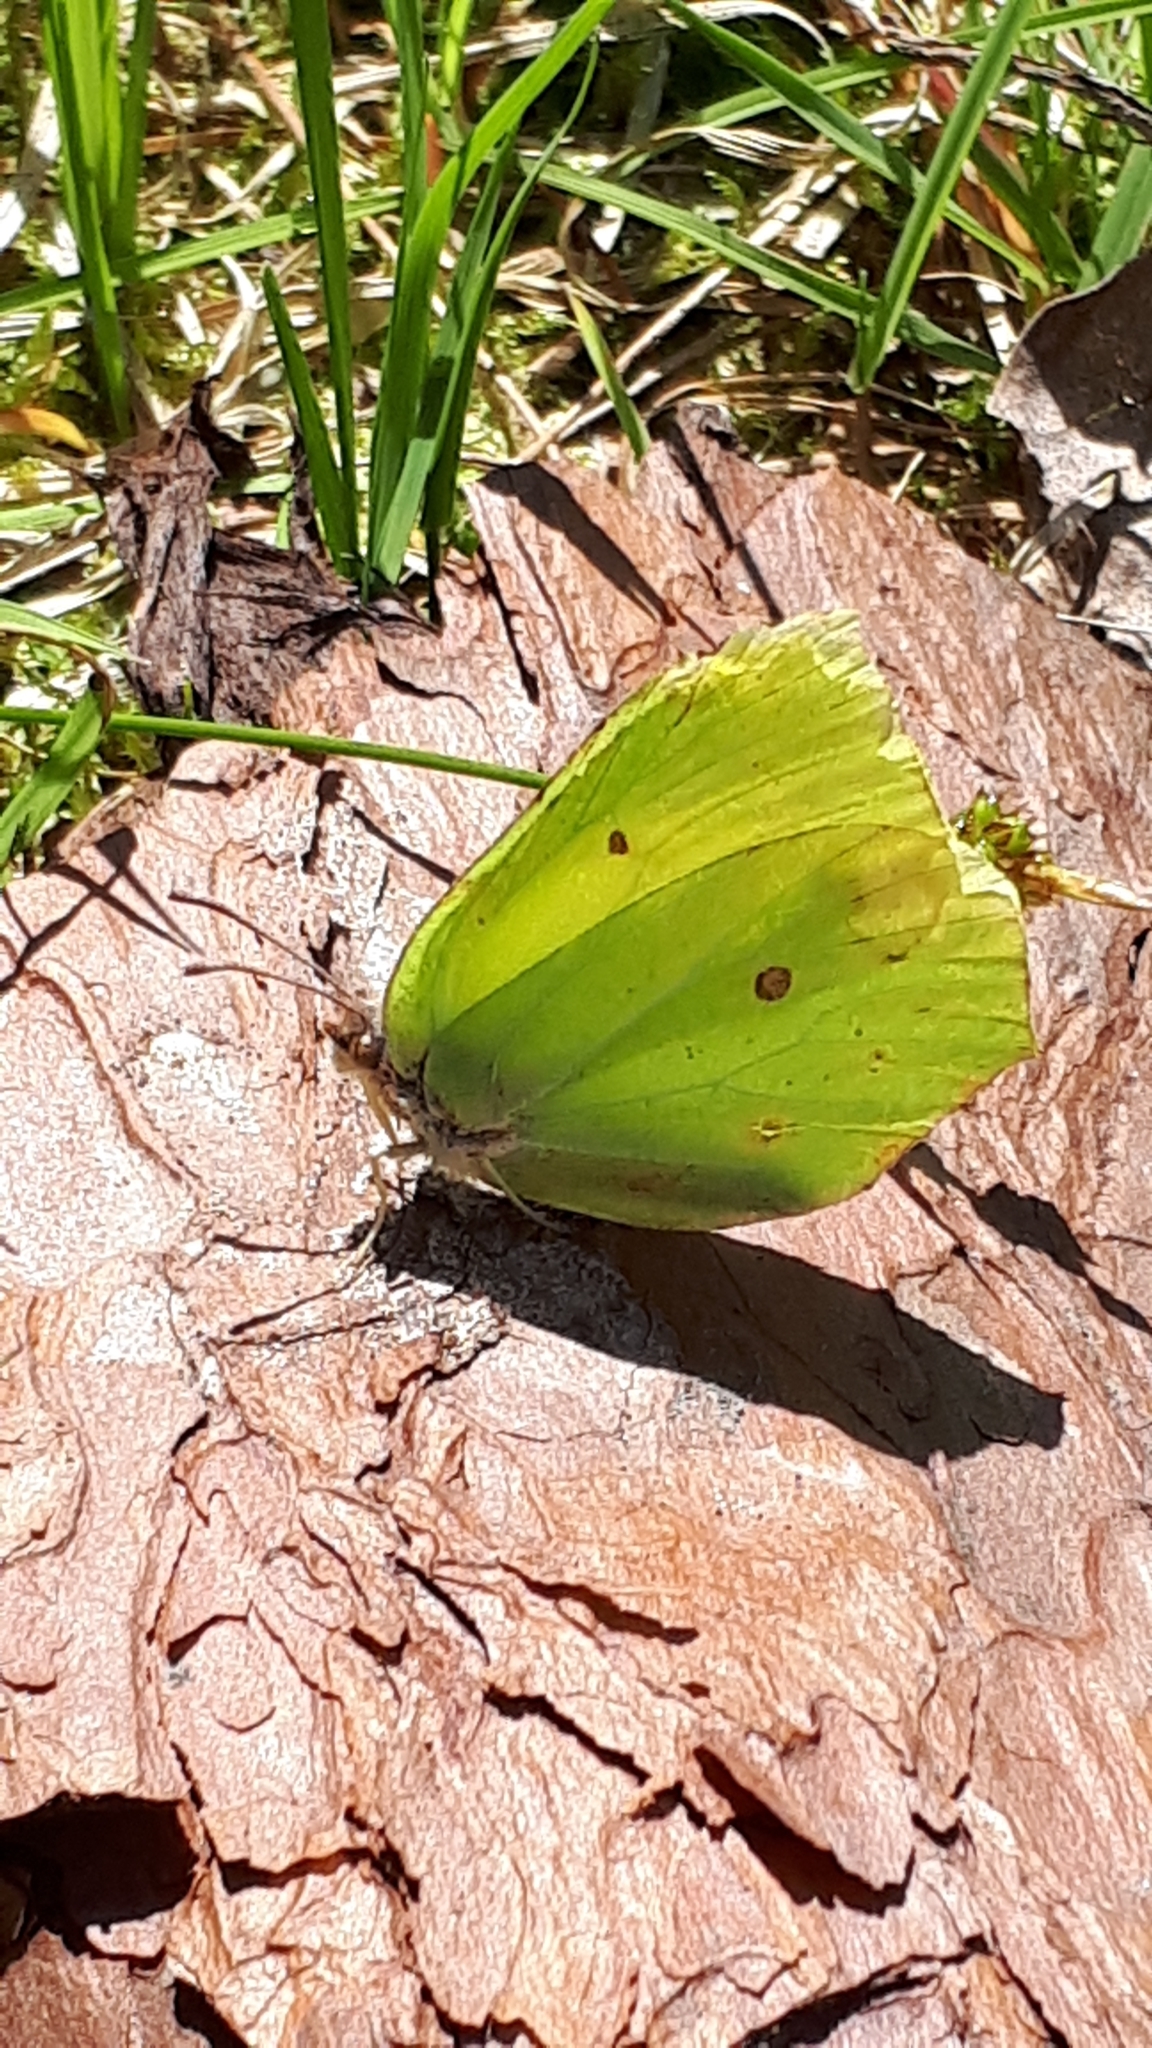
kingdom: Animalia
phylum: Arthropoda
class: Insecta
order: Lepidoptera
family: Pieridae
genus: Gonepteryx
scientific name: Gonepteryx rhamni
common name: Brimstone
